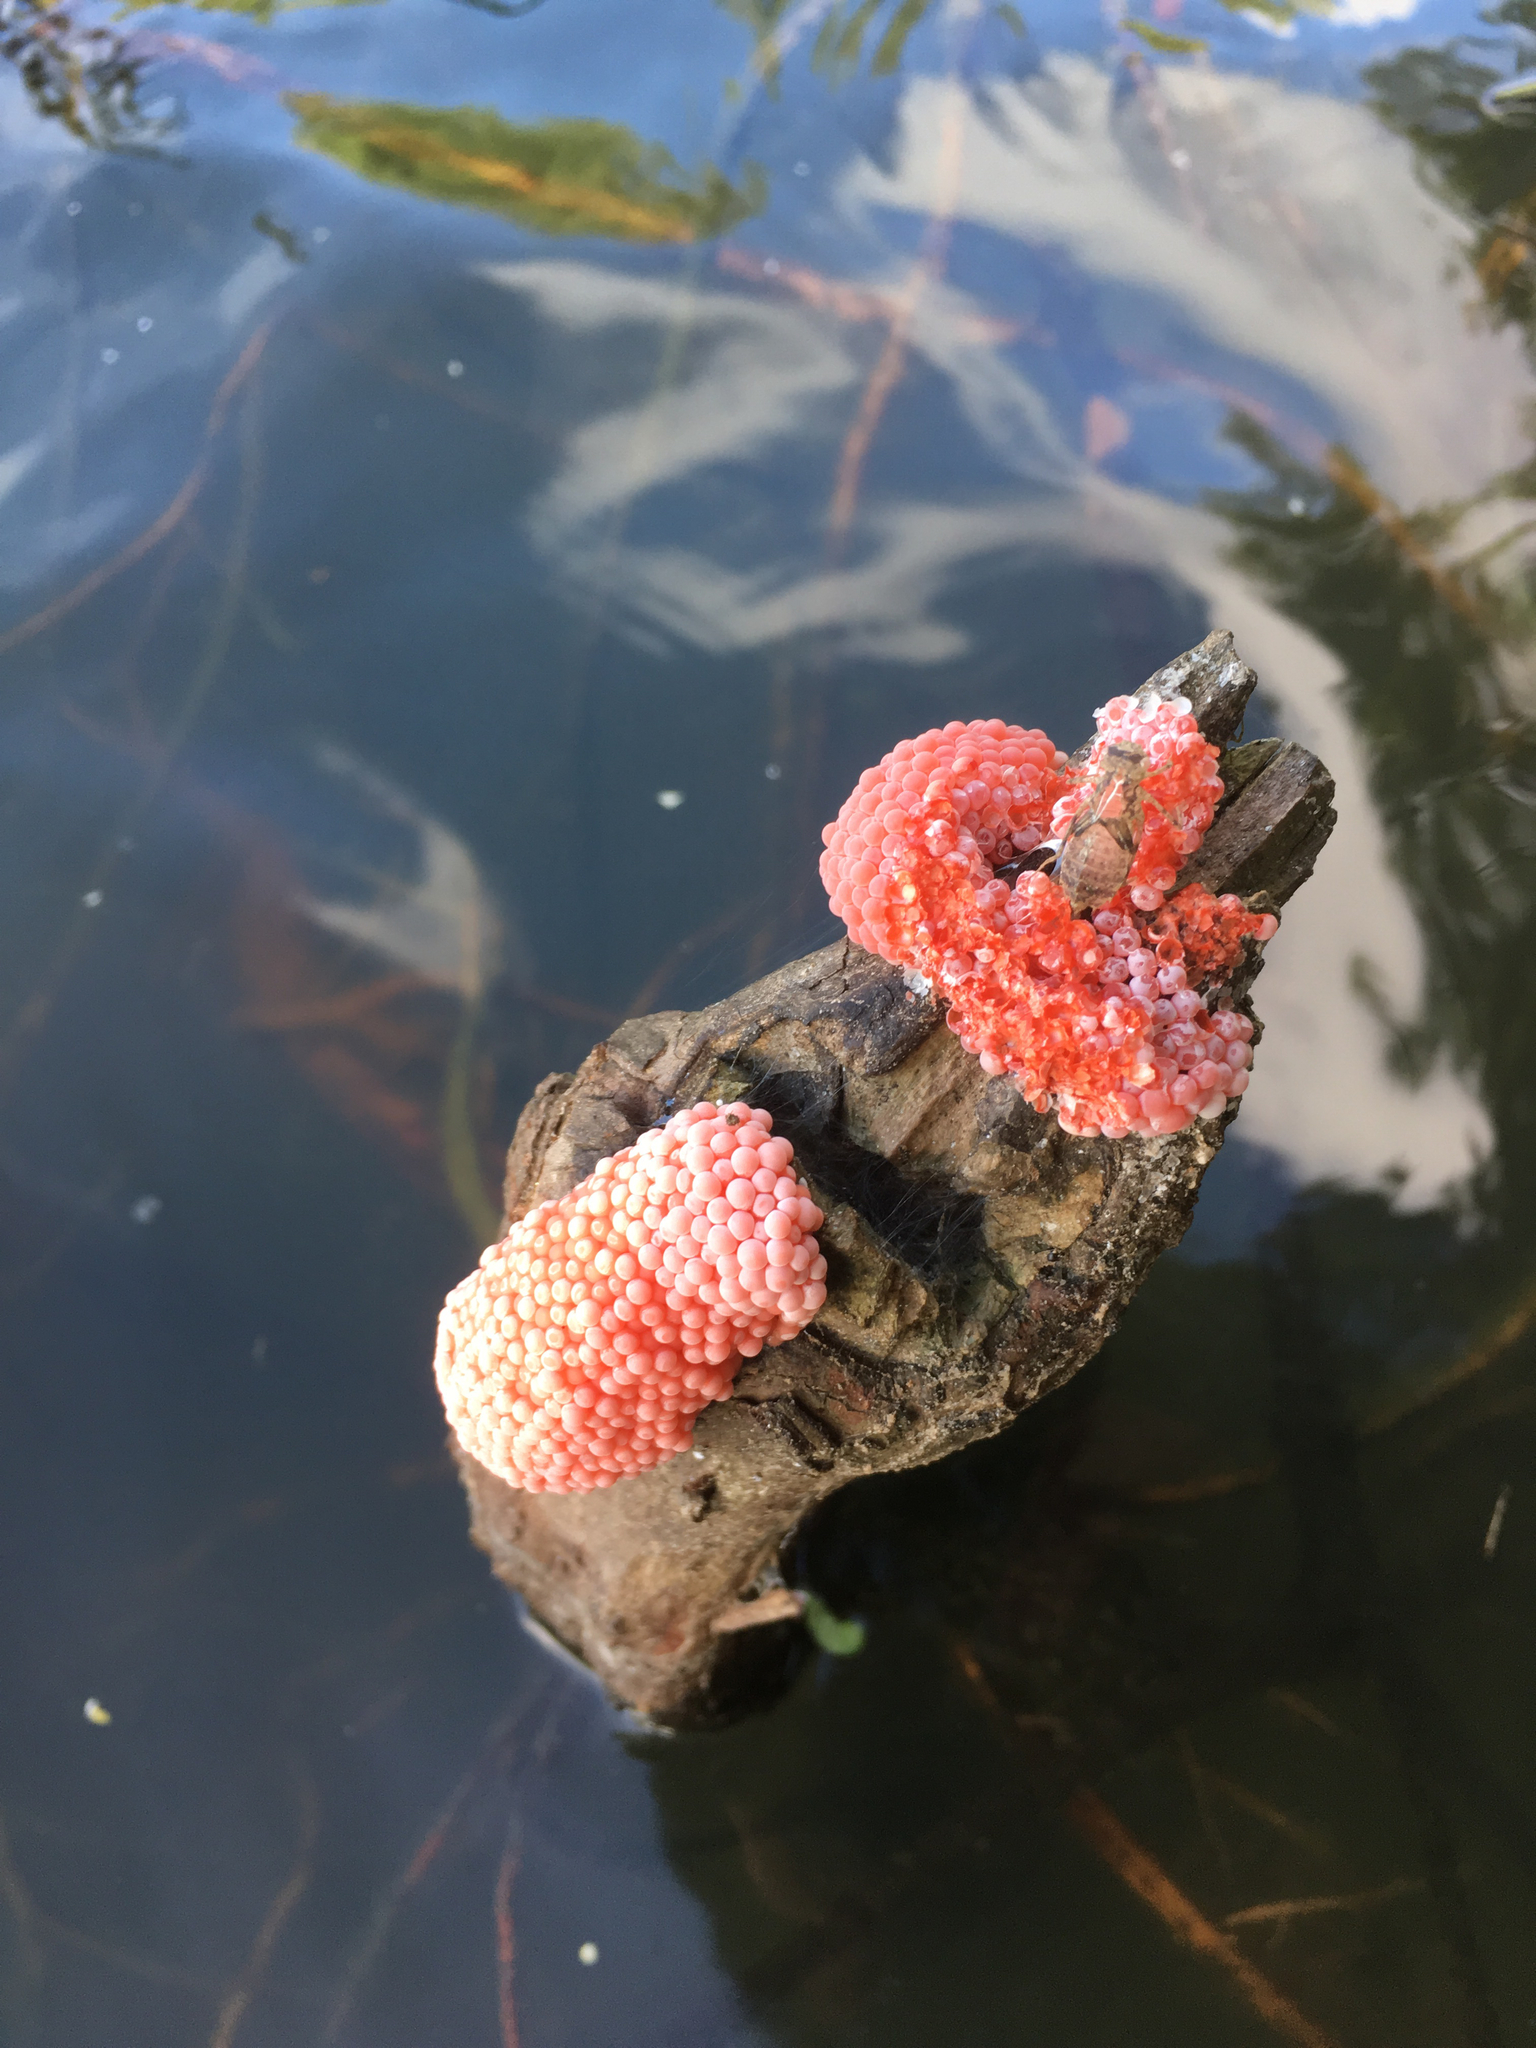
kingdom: Animalia
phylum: Mollusca
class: Gastropoda
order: Architaenioglossa
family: Ampullariidae
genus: Pomacea
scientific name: Pomacea maculata
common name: Giant applesnail
